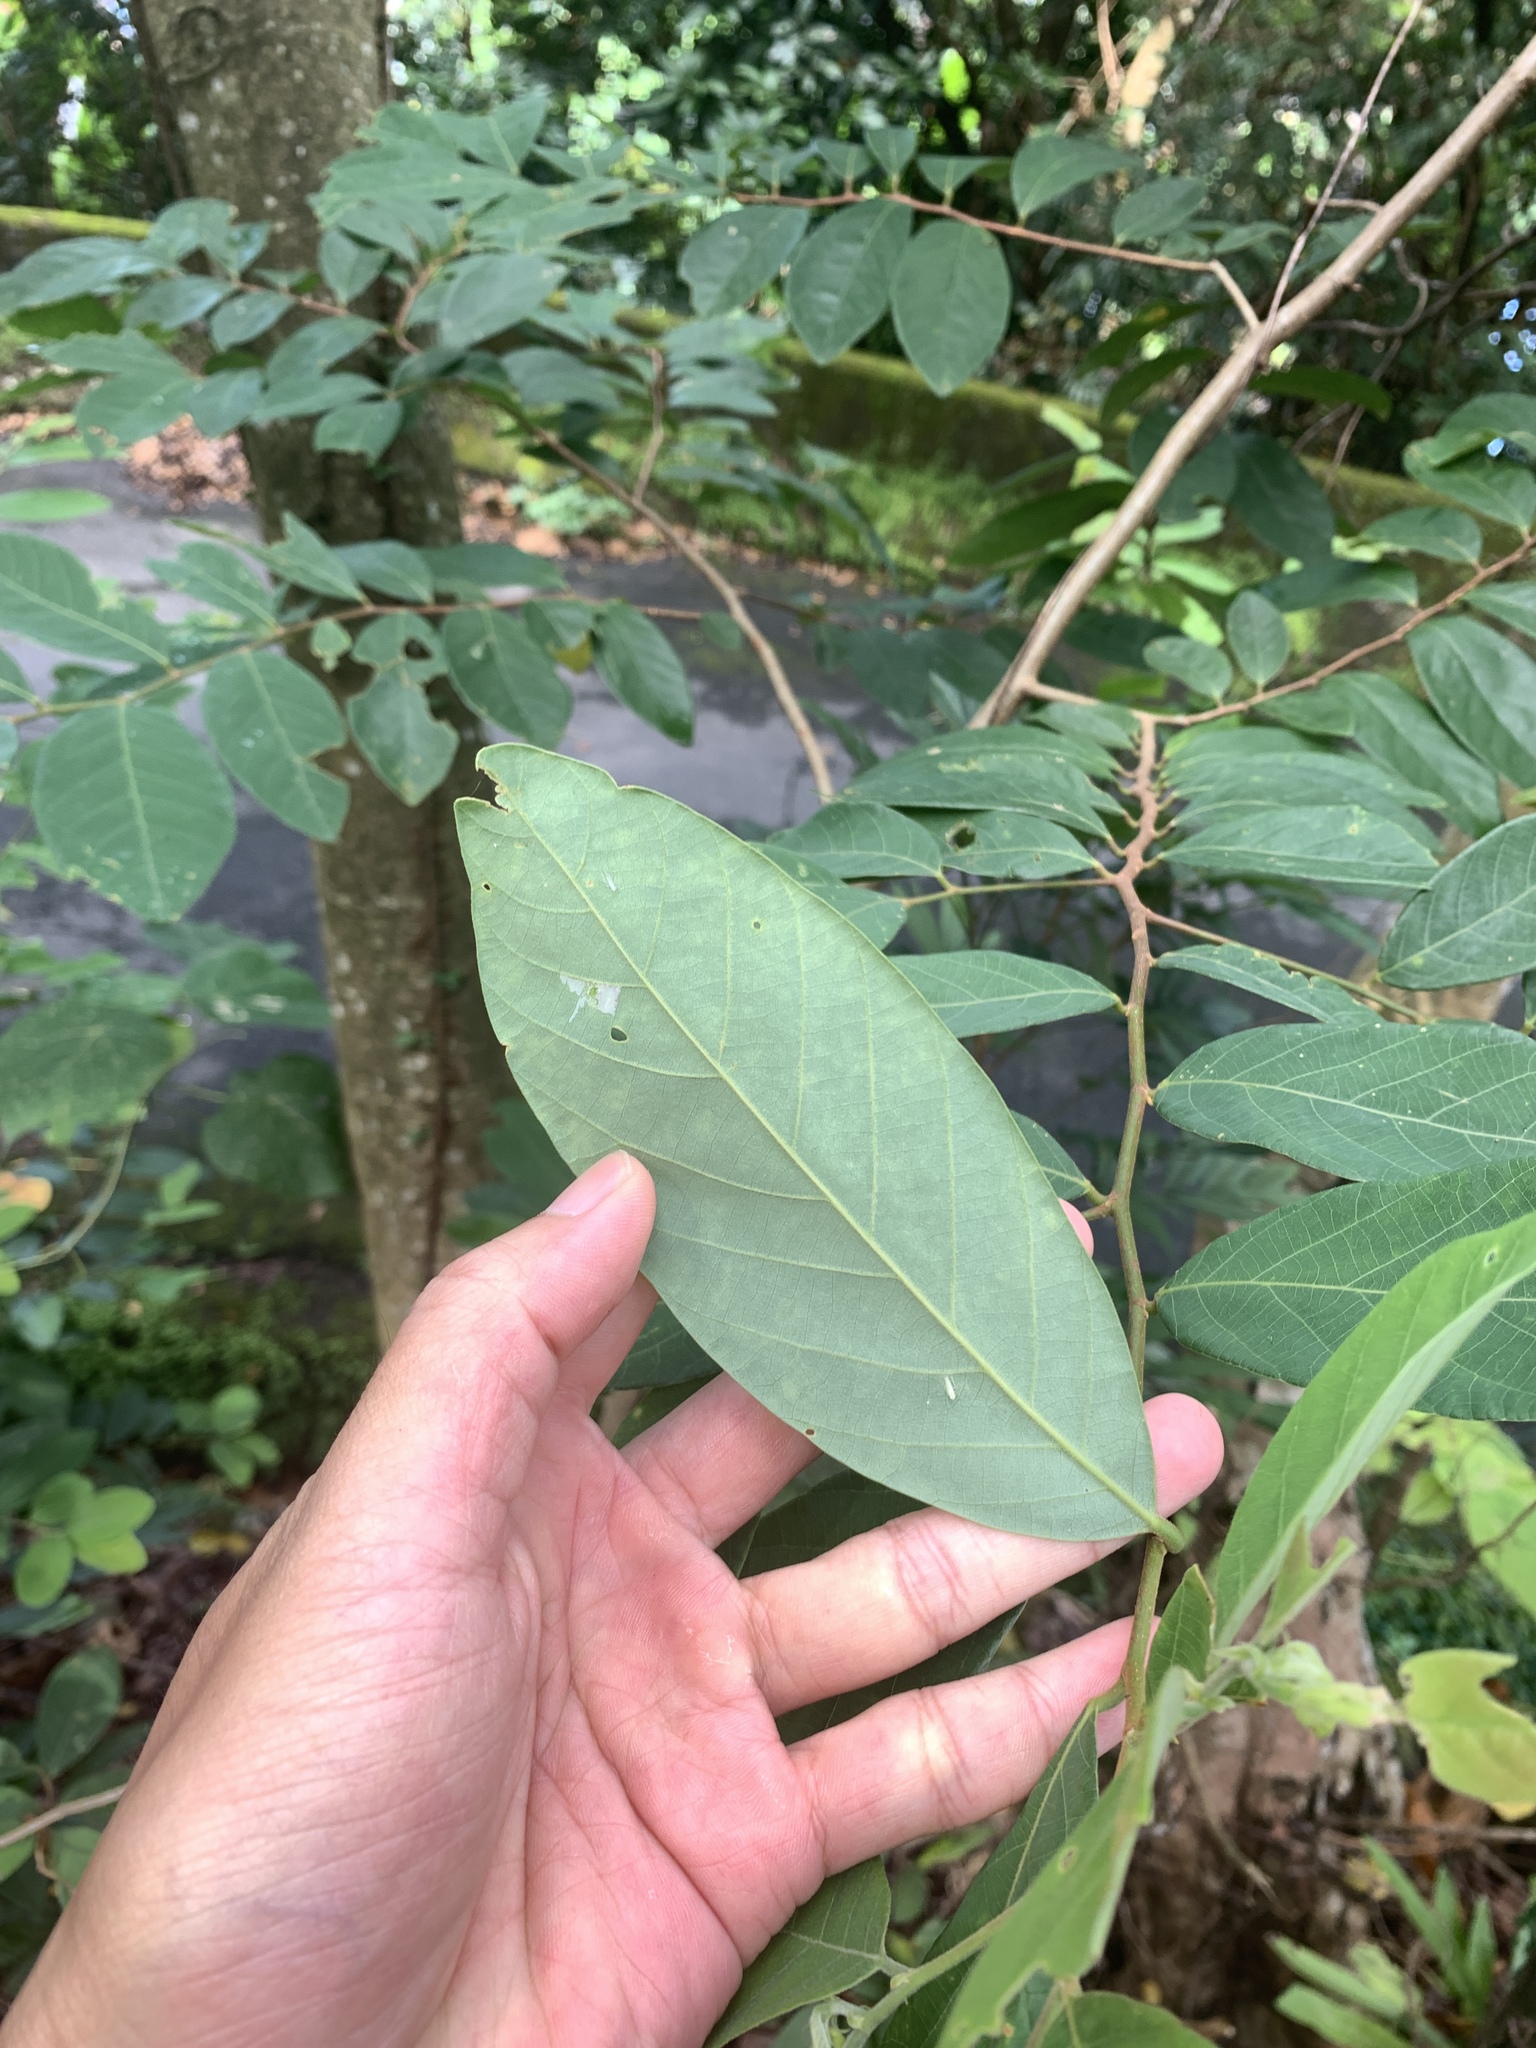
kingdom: Plantae
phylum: Tracheophyta
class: Magnoliopsida
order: Malpighiales
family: Phyllanthaceae
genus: Bridelia
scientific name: Bridelia tomentosa
